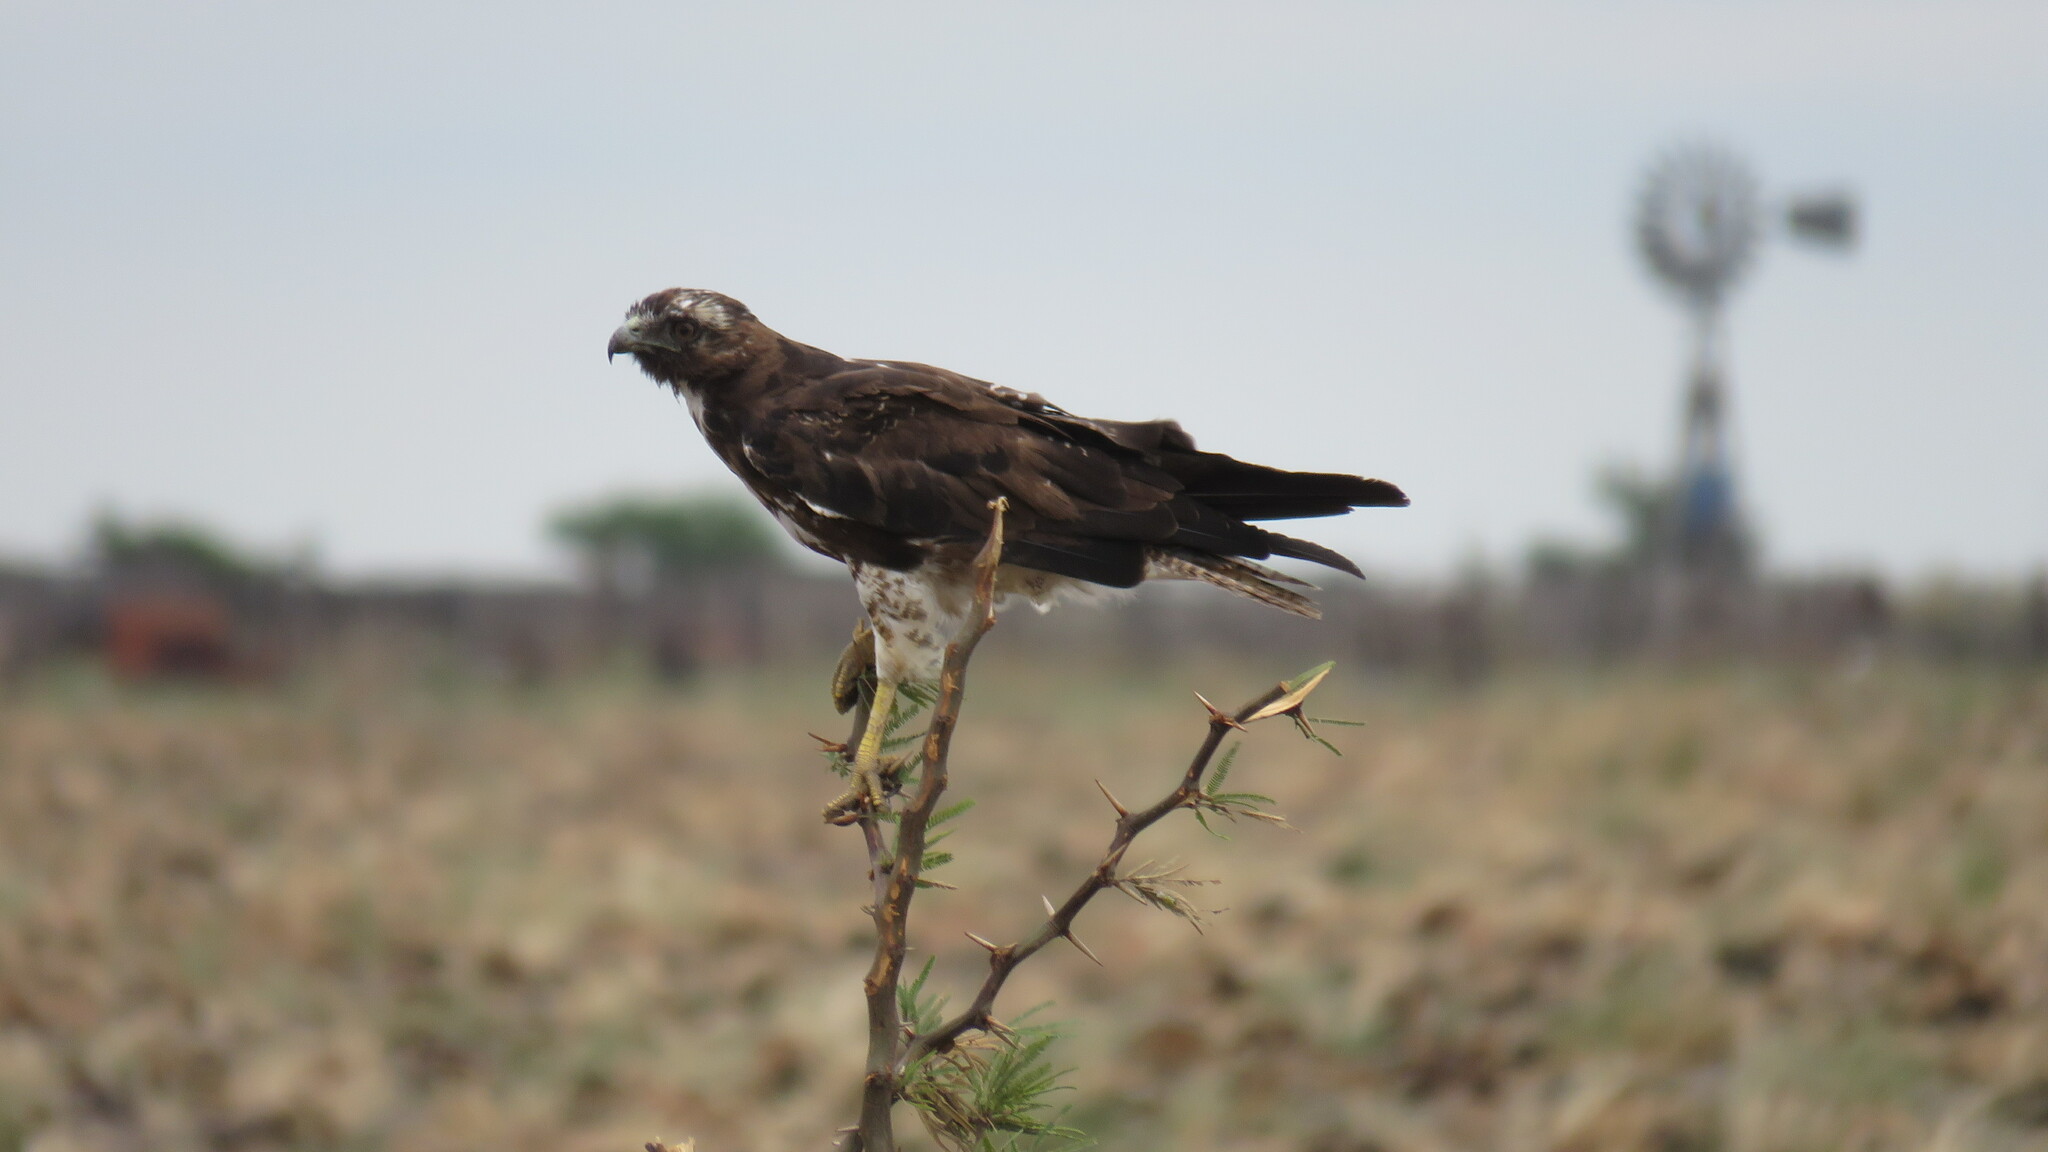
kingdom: Animalia
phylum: Chordata
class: Aves
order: Accipitriformes
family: Accipitridae
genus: Buteo
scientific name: Buteo albicaudatus
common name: White-tailed hawk
